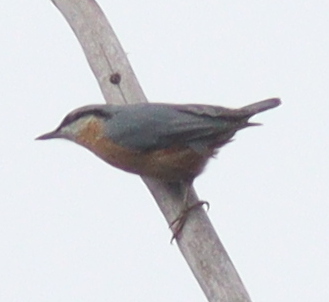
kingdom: Animalia
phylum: Chordata
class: Aves
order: Passeriformes
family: Sittidae
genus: Sitta
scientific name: Sitta europaea
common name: Eurasian nuthatch
